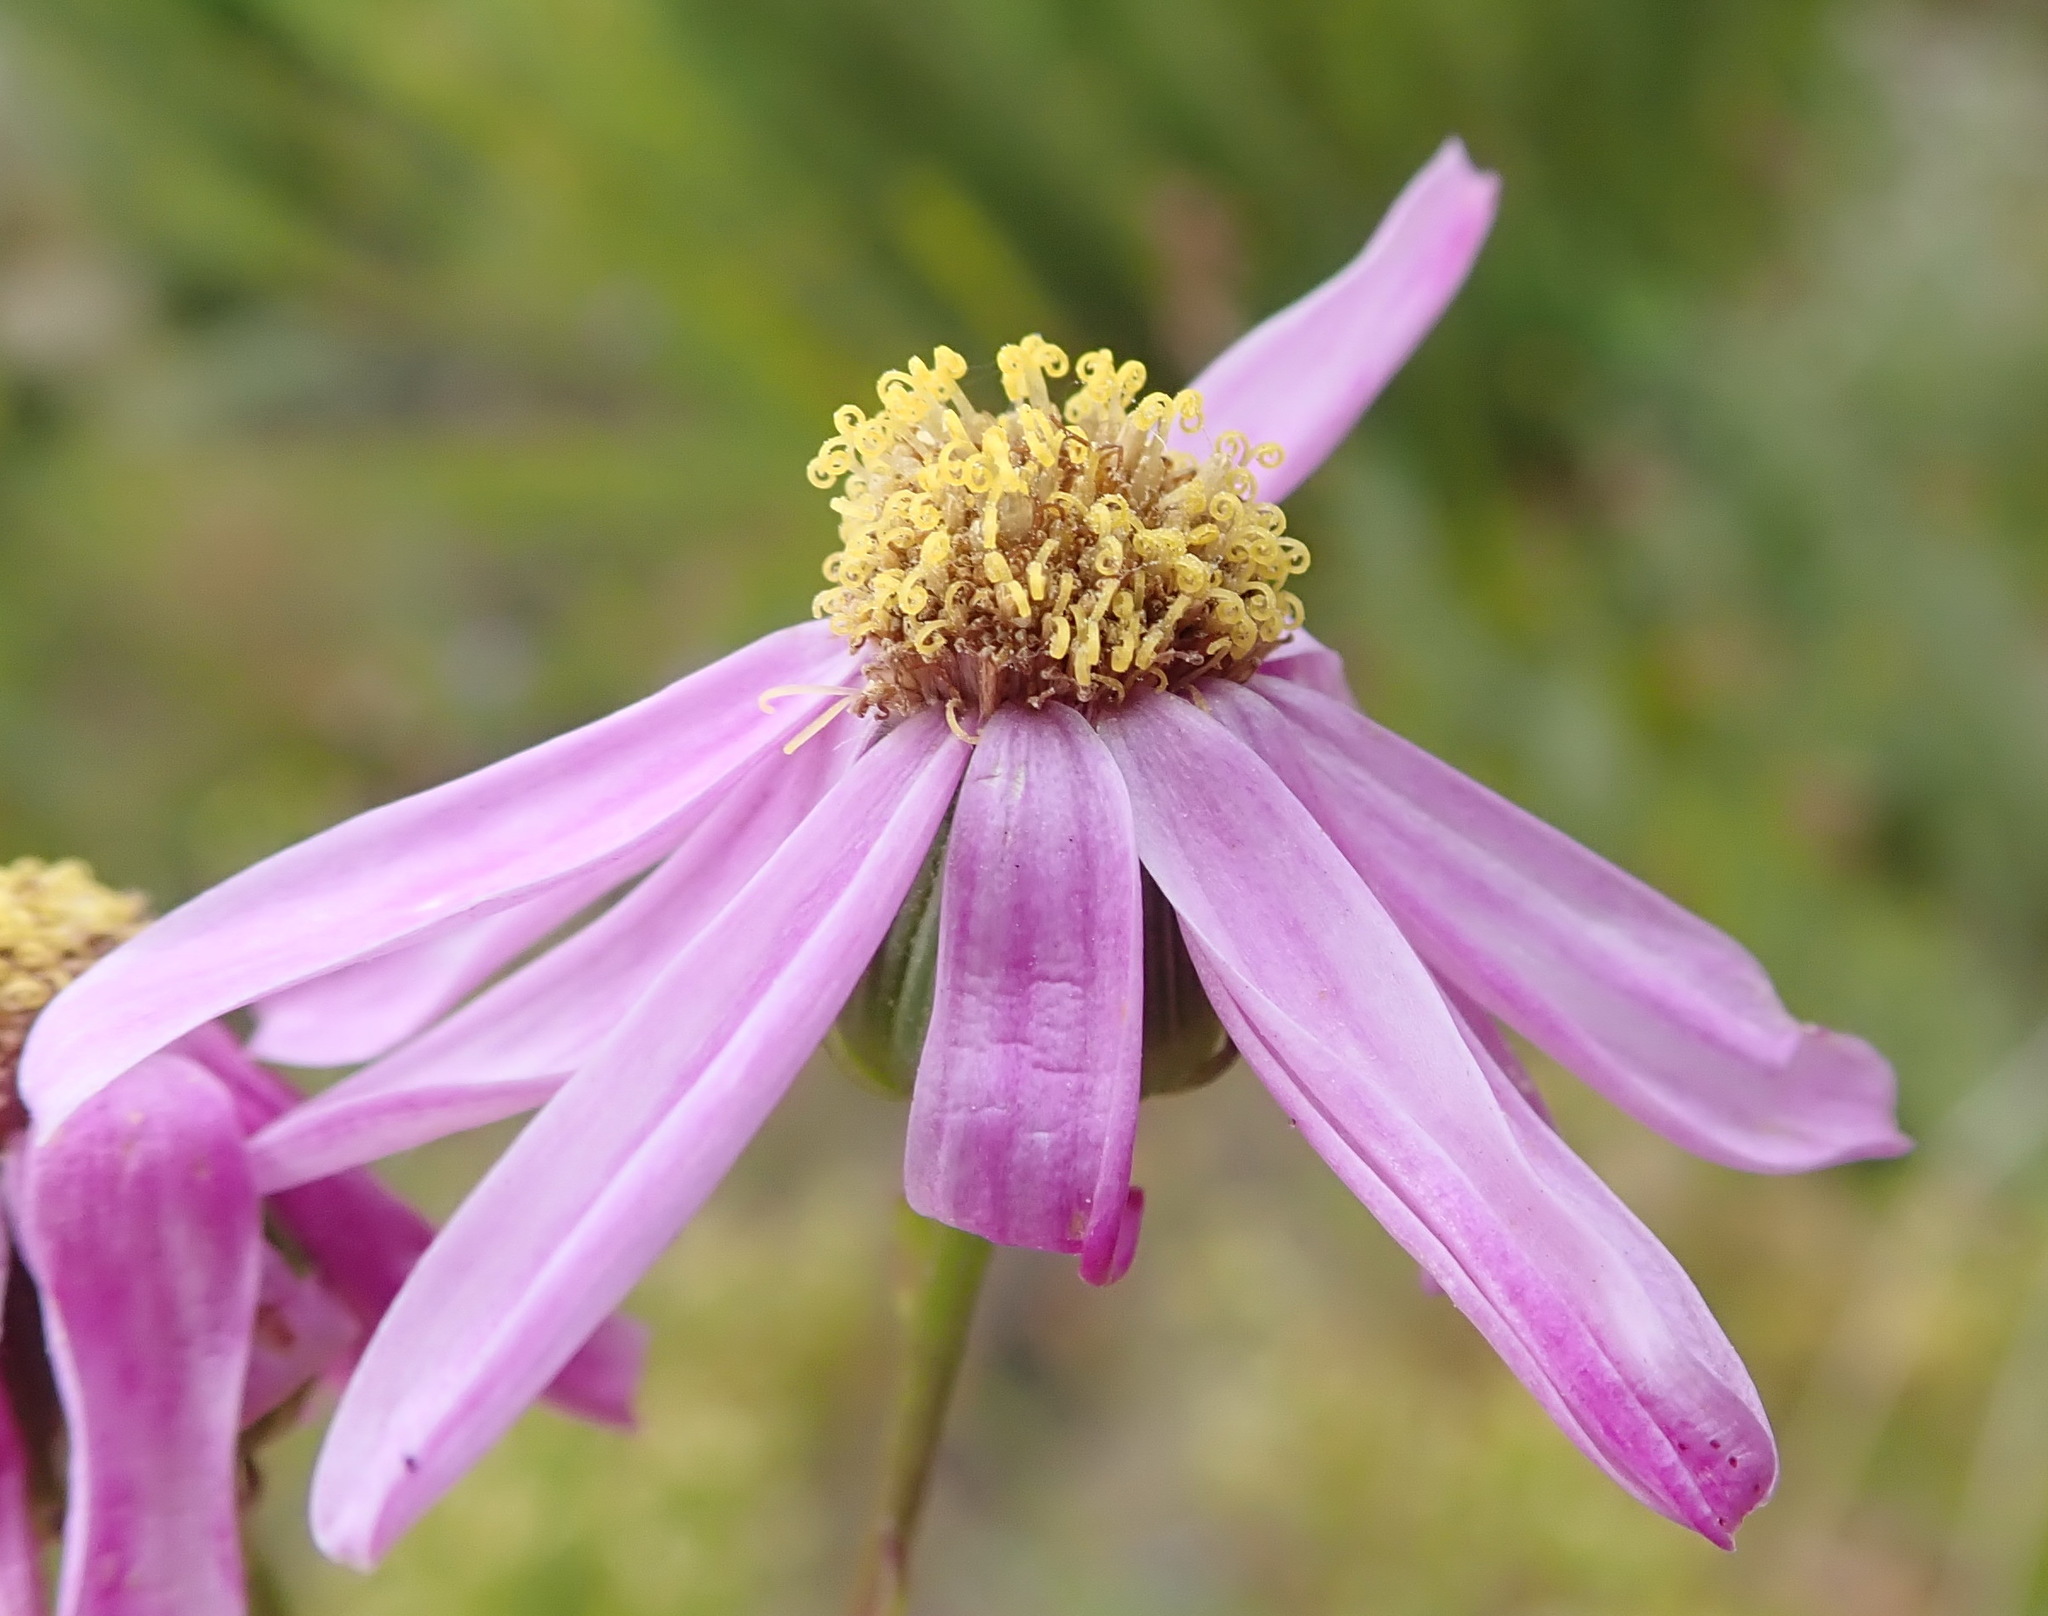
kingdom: Plantae
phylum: Tracheophyta
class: Magnoliopsida
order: Asterales
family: Asteraceae
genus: Senecio
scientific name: Senecio glastifolius
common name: Woad-leaved ragwort
